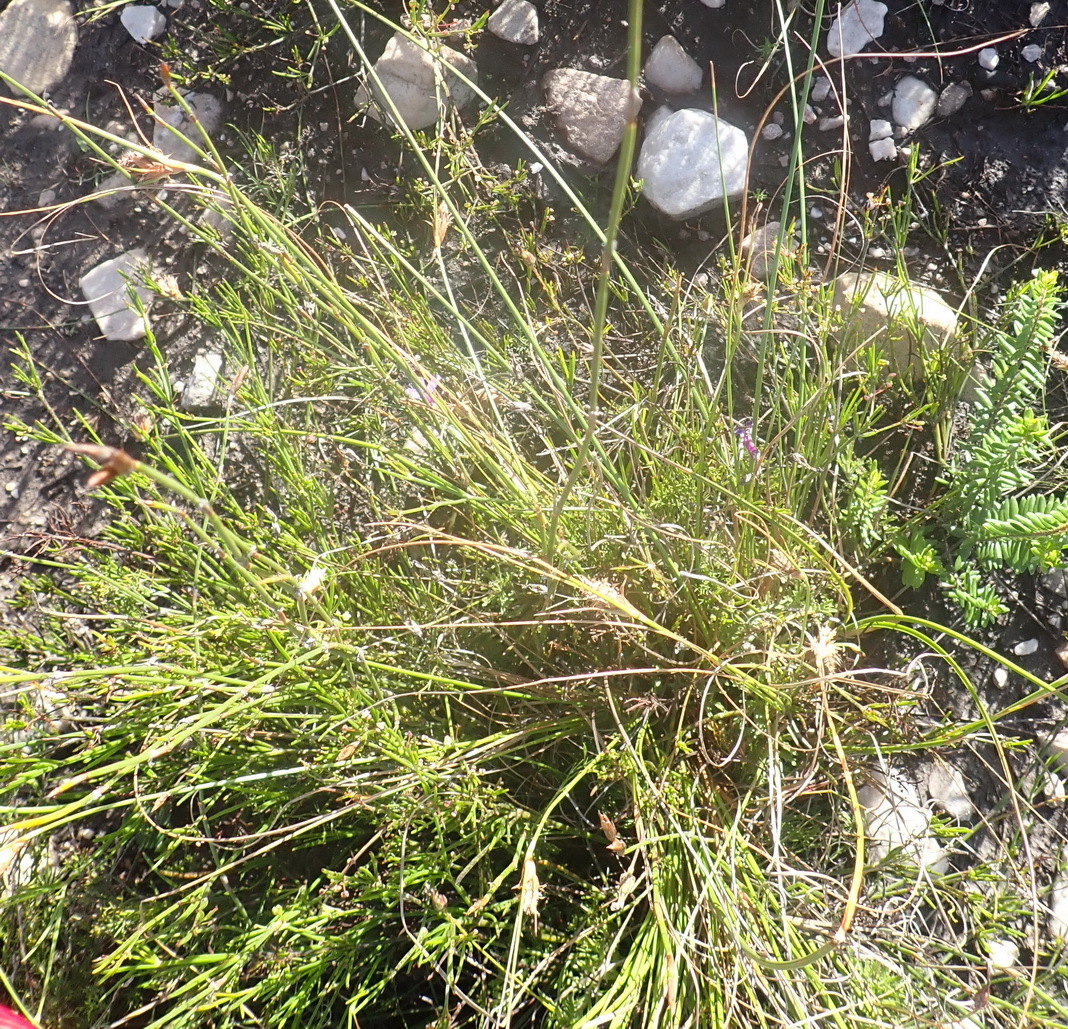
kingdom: Plantae
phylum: Tracheophyta
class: Liliopsida
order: Poales
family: Cyperaceae
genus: Ficinia
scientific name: Ficinia nigrescens
